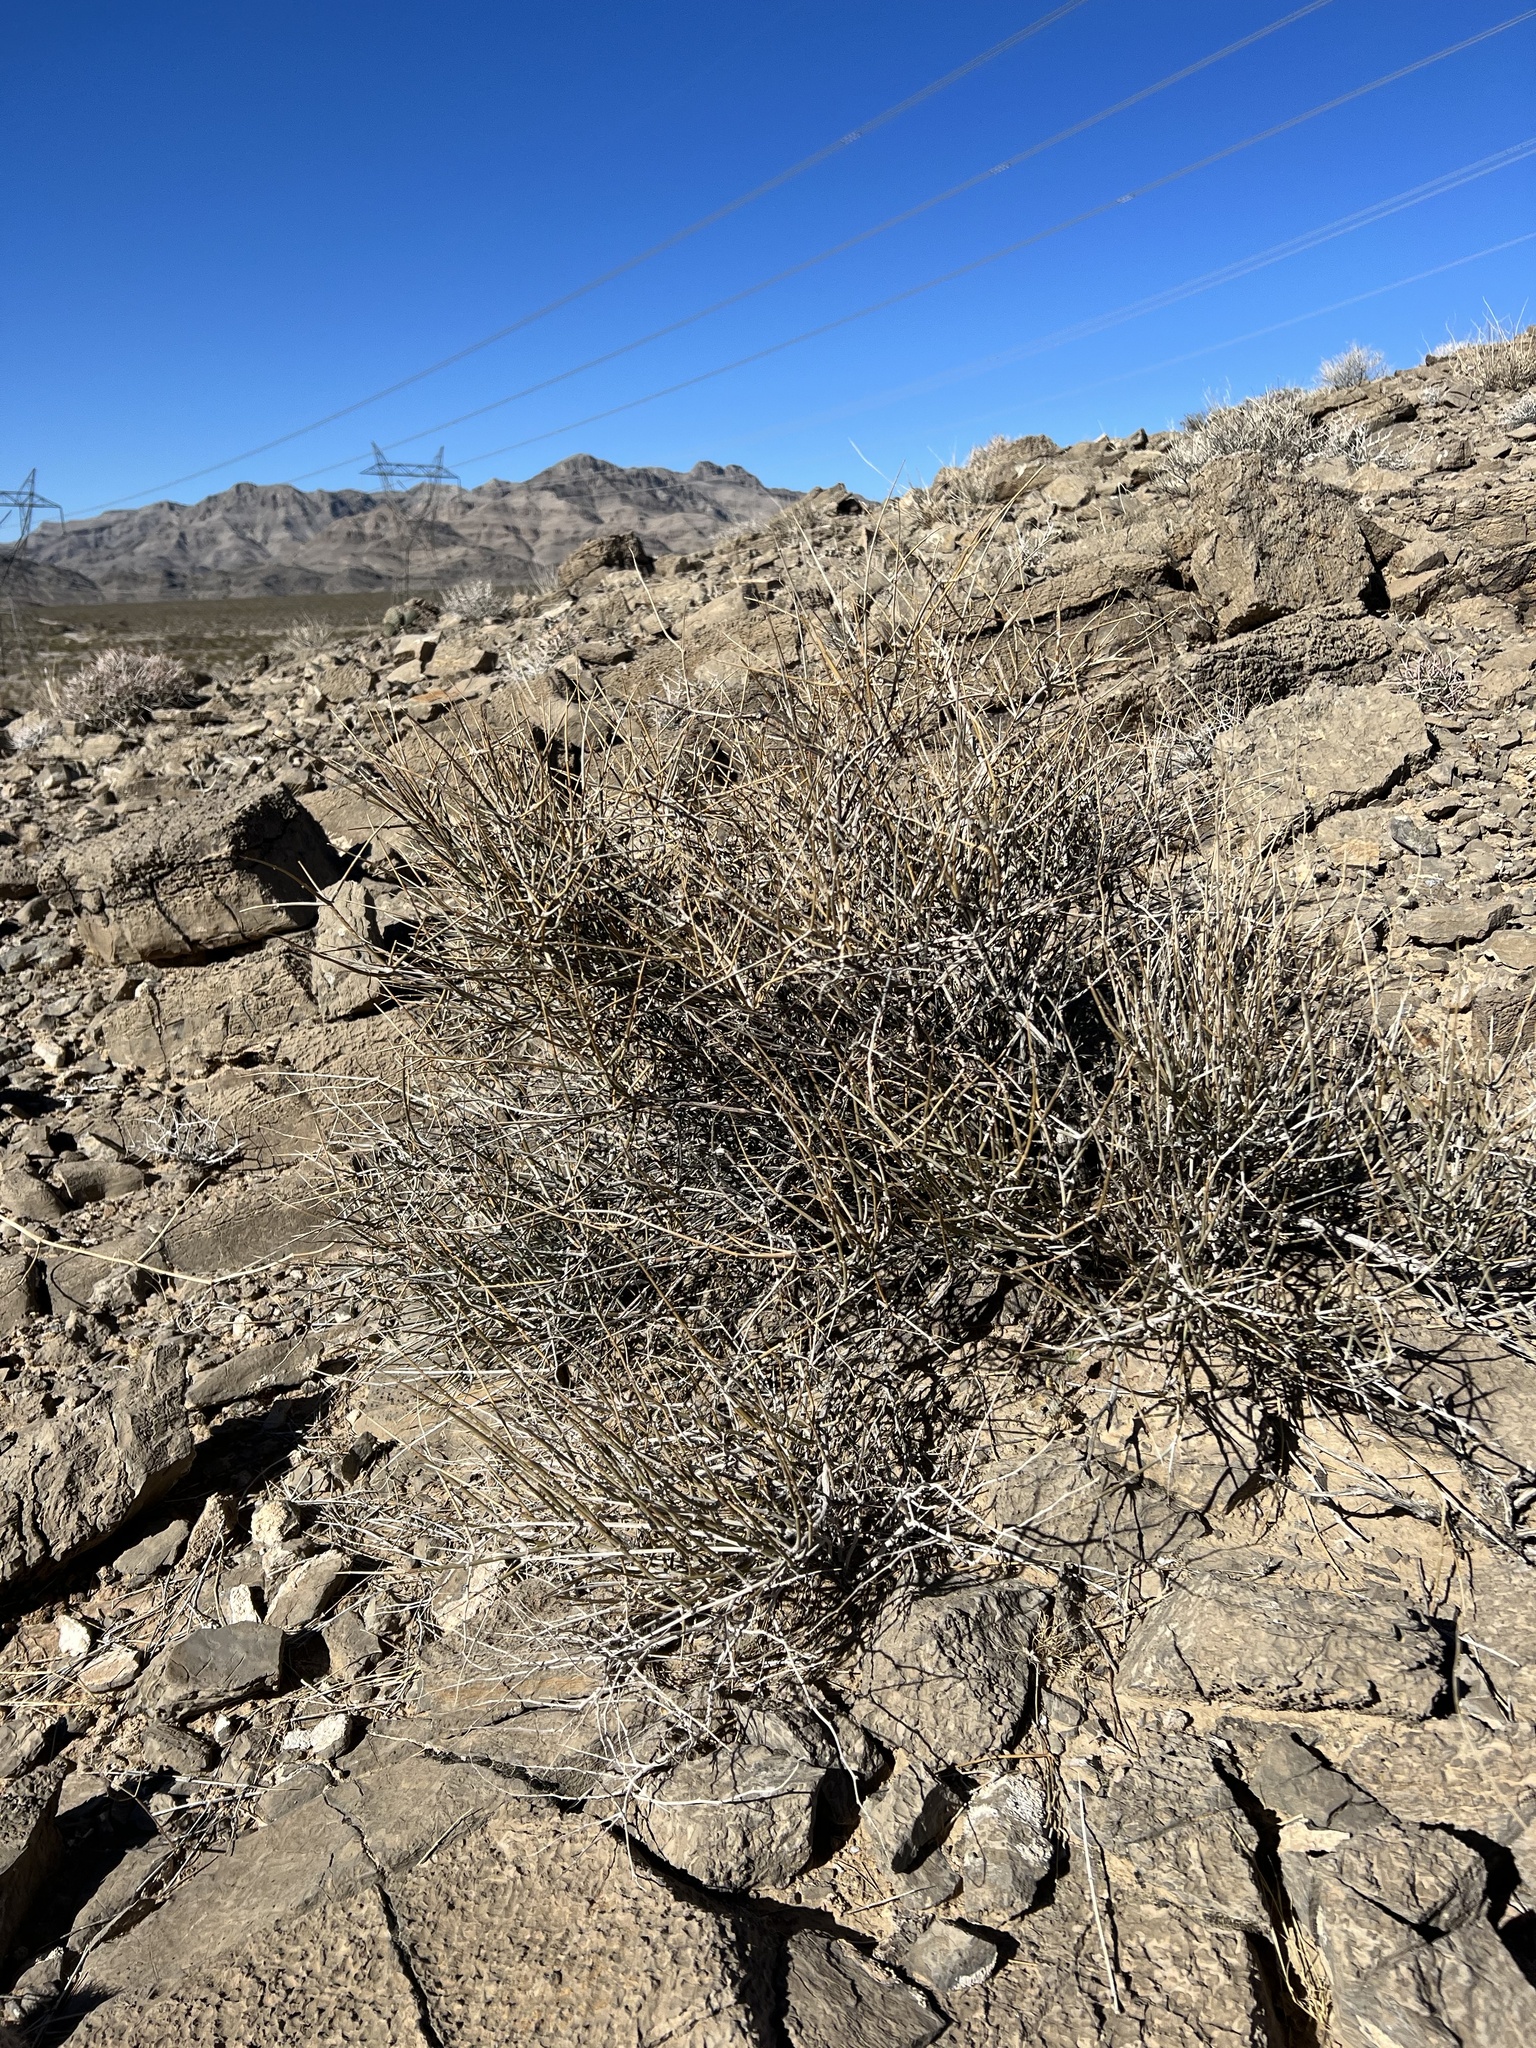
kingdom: Plantae
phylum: Tracheophyta
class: Gnetopsida
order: Ephedrales
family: Ephedraceae
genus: Ephedra
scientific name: Ephedra nevadensis
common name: Gray ephedra
